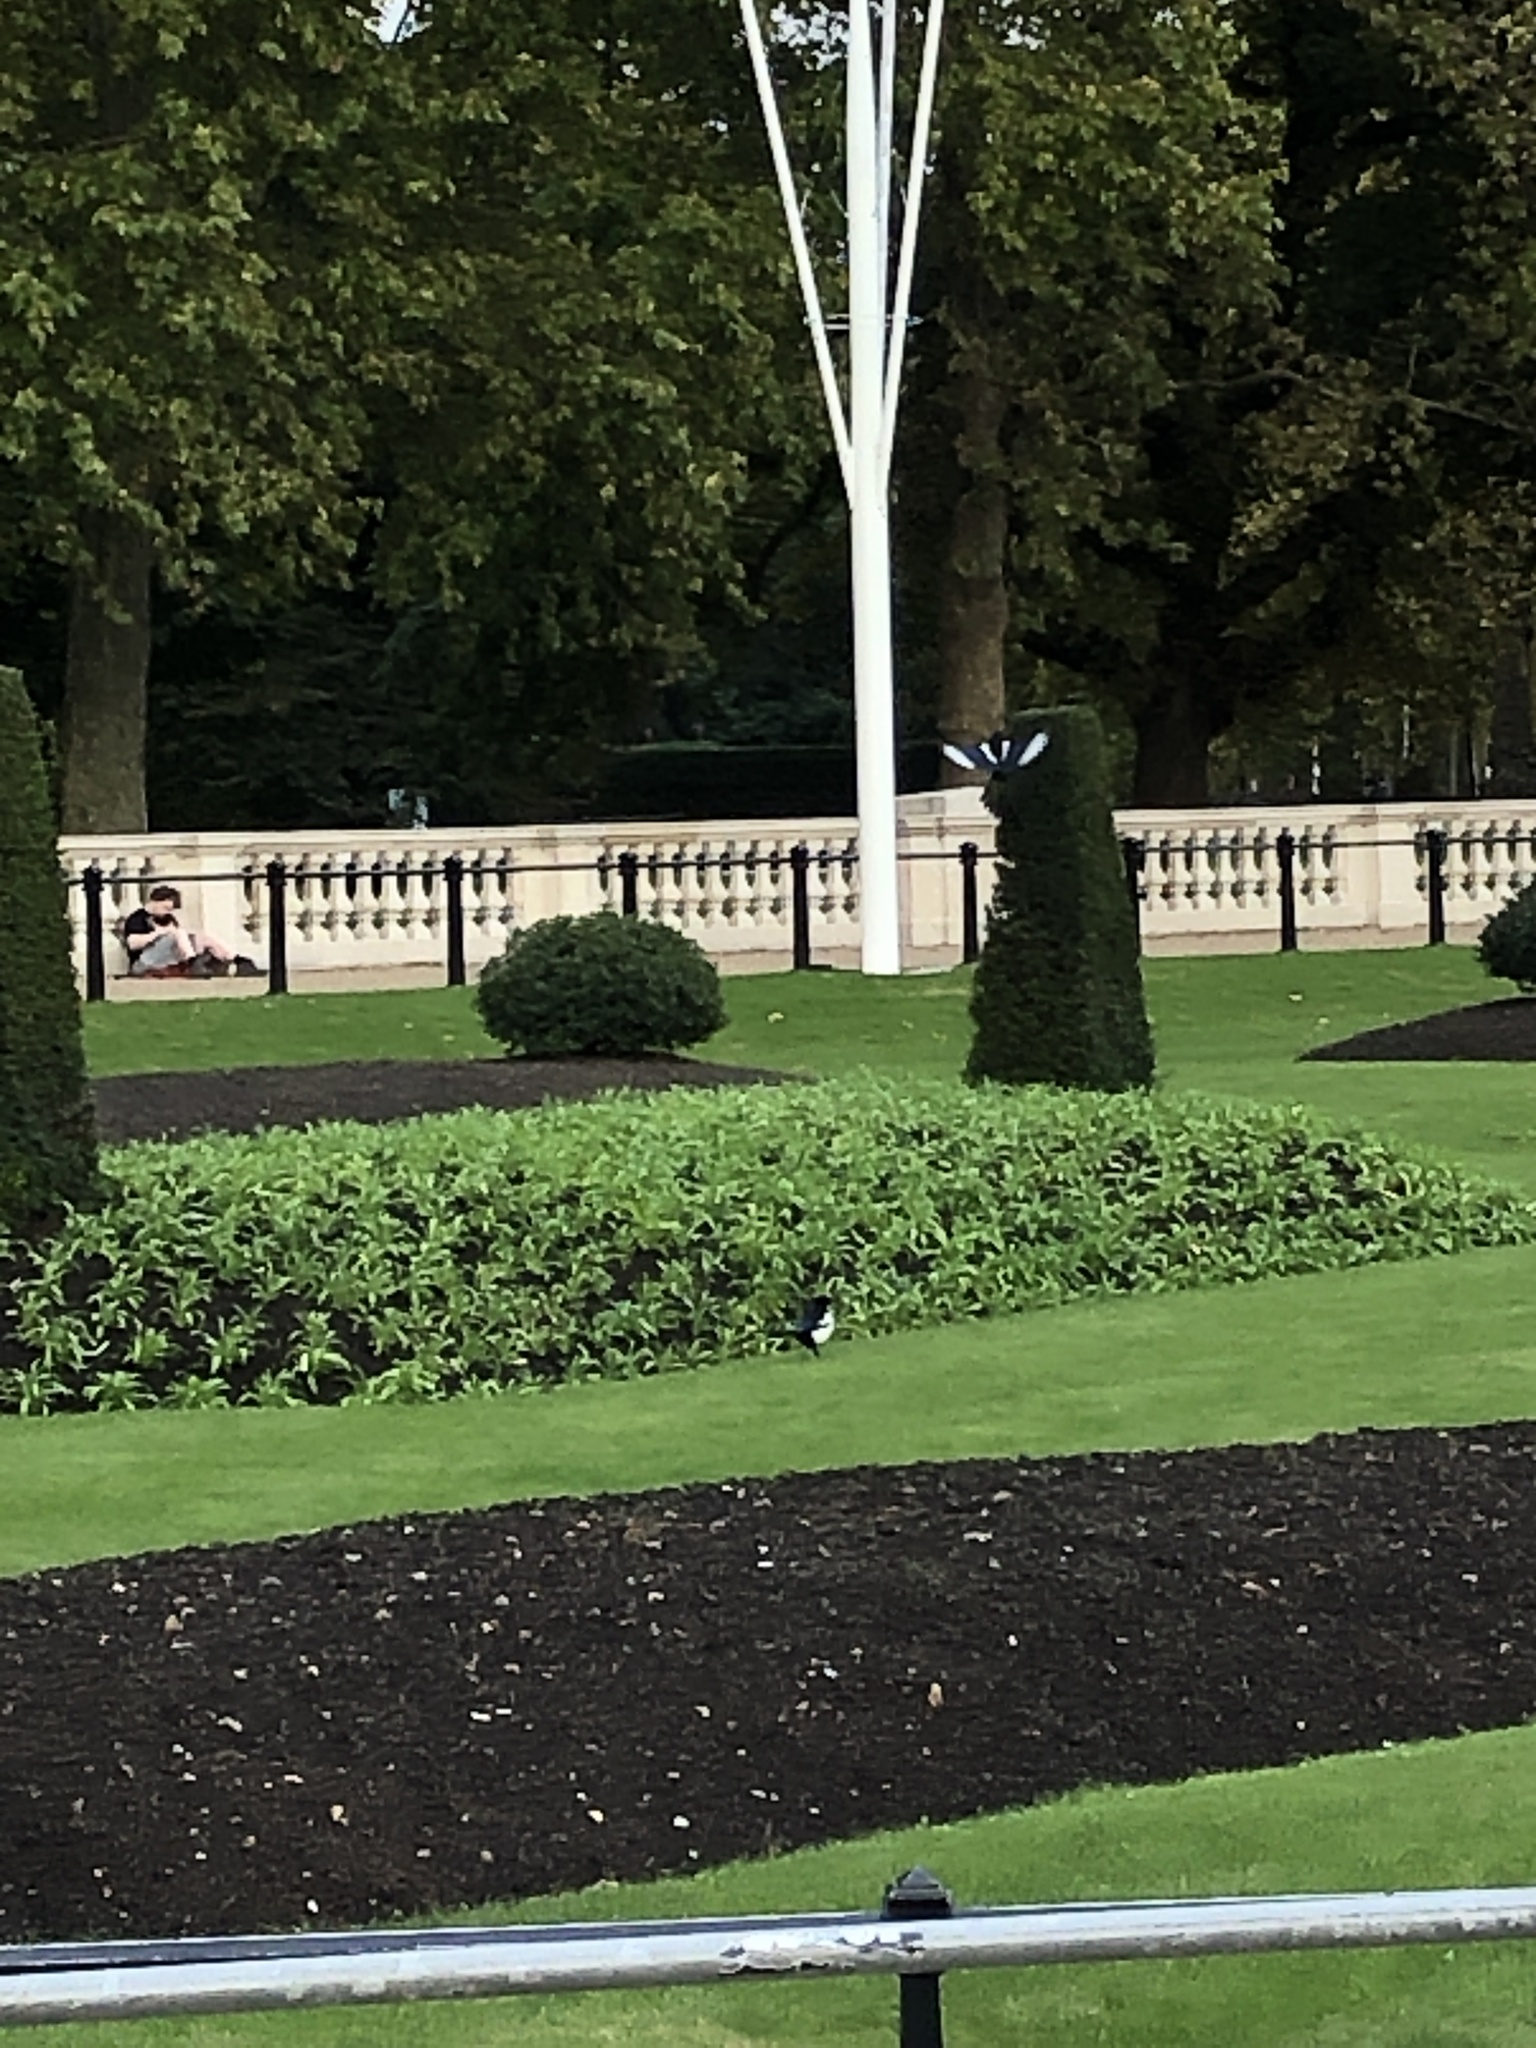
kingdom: Animalia
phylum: Chordata
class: Aves
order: Passeriformes
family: Corvidae
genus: Pica
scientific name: Pica pica
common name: Eurasian magpie
